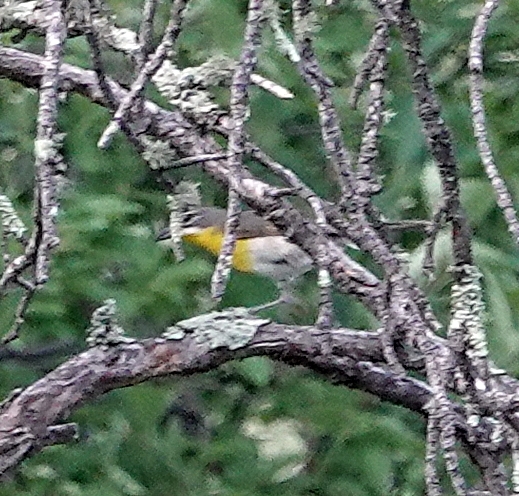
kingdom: Animalia
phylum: Chordata
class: Aves
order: Passeriformes
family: Parulidae
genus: Icteria
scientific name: Icteria virens
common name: Yellow-breasted chat
